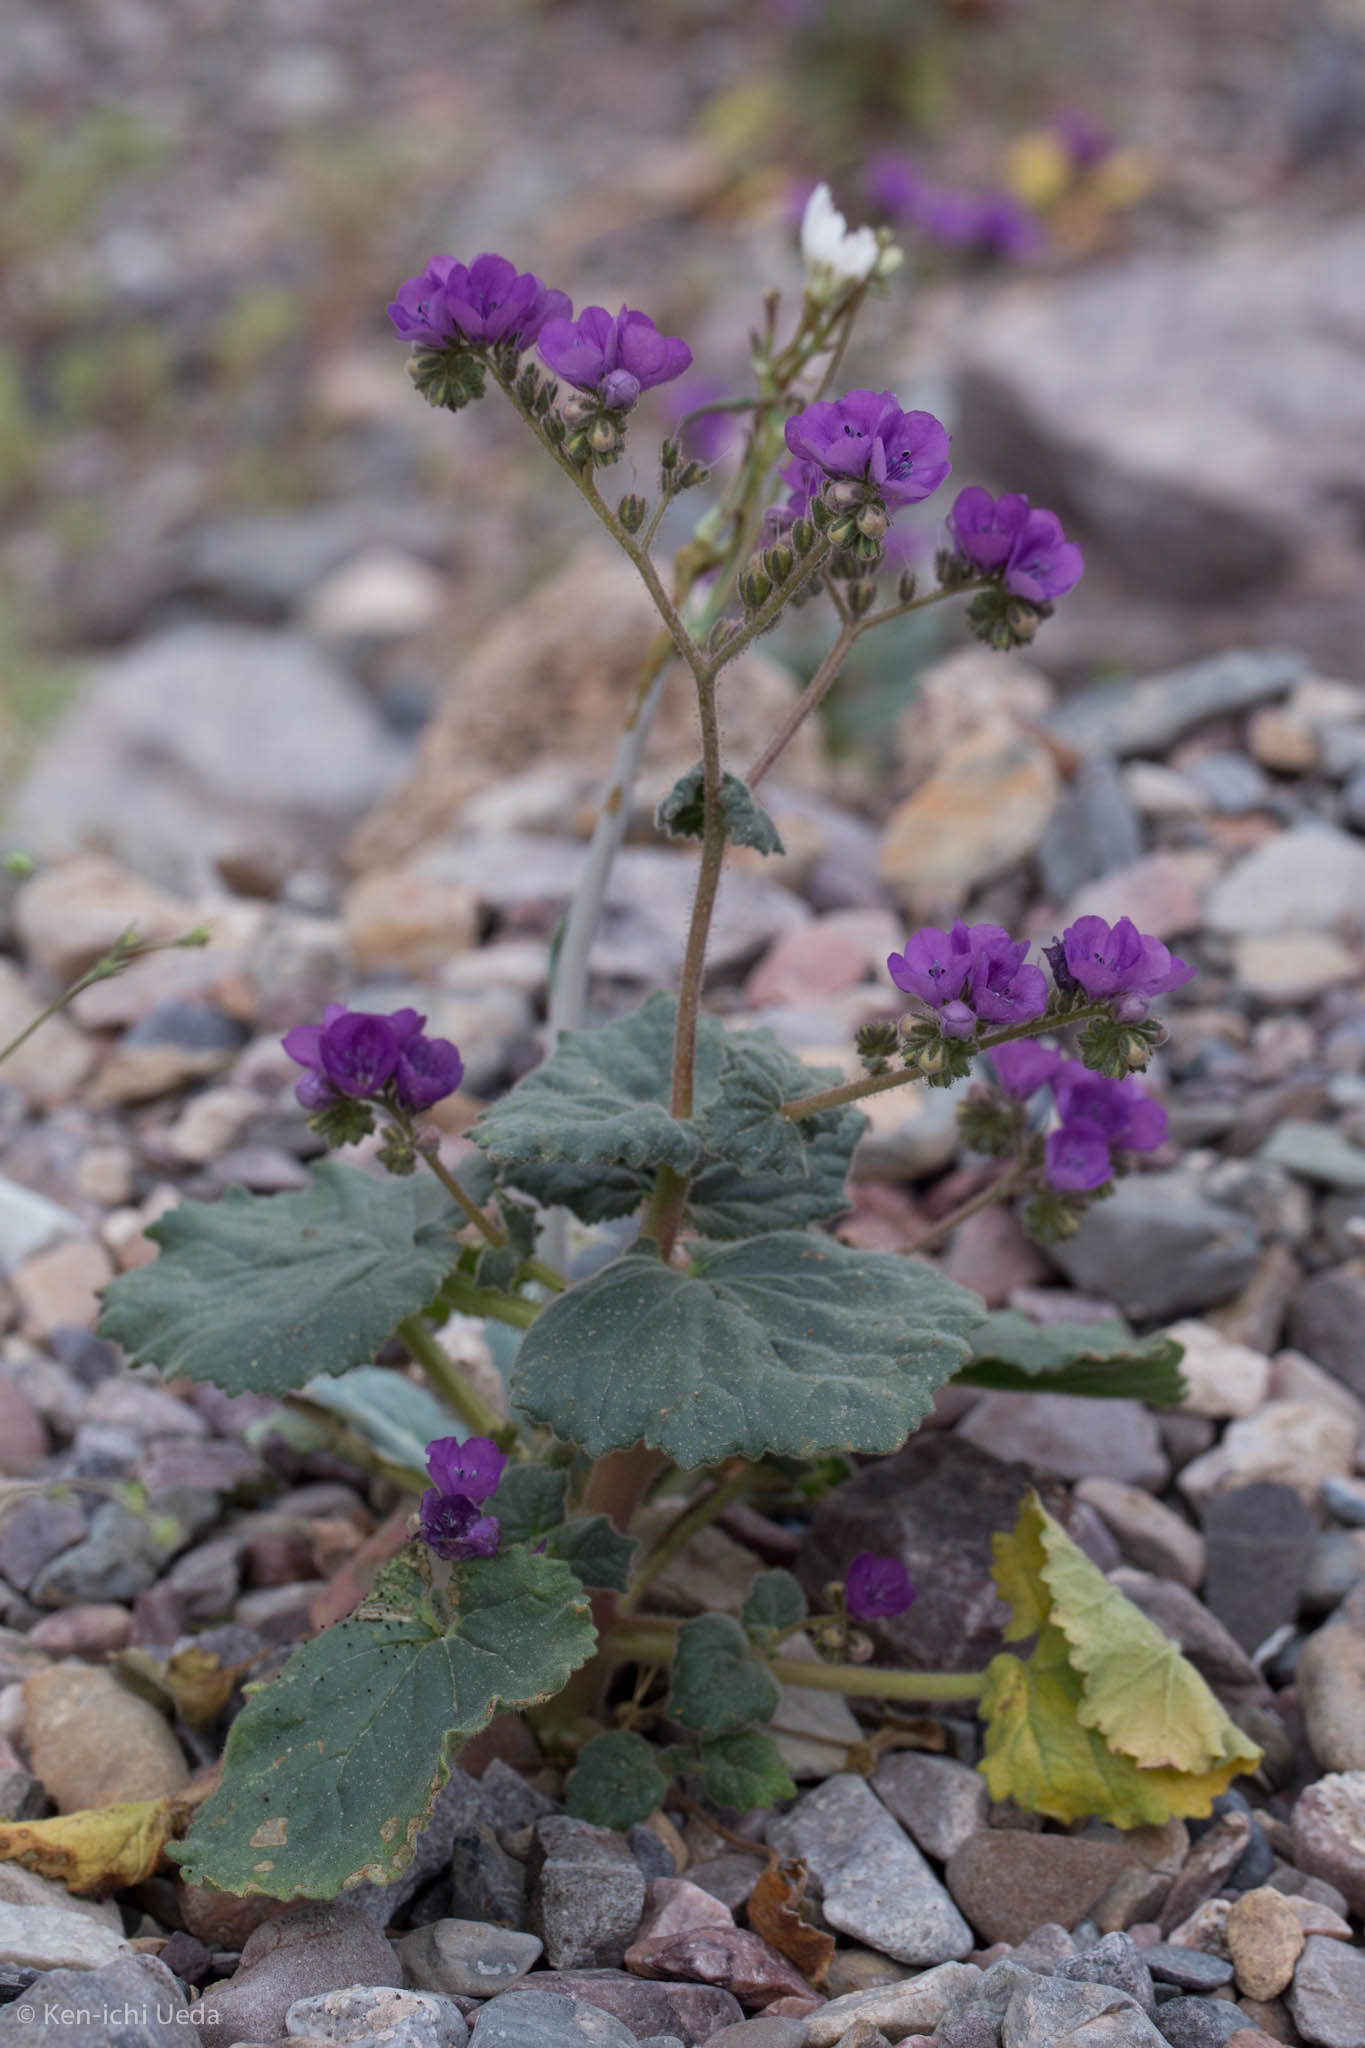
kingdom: Plantae
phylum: Tracheophyta
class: Magnoliopsida
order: Boraginales
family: Hydrophyllaceae
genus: Phacelia
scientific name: Phacelia calthifolia
